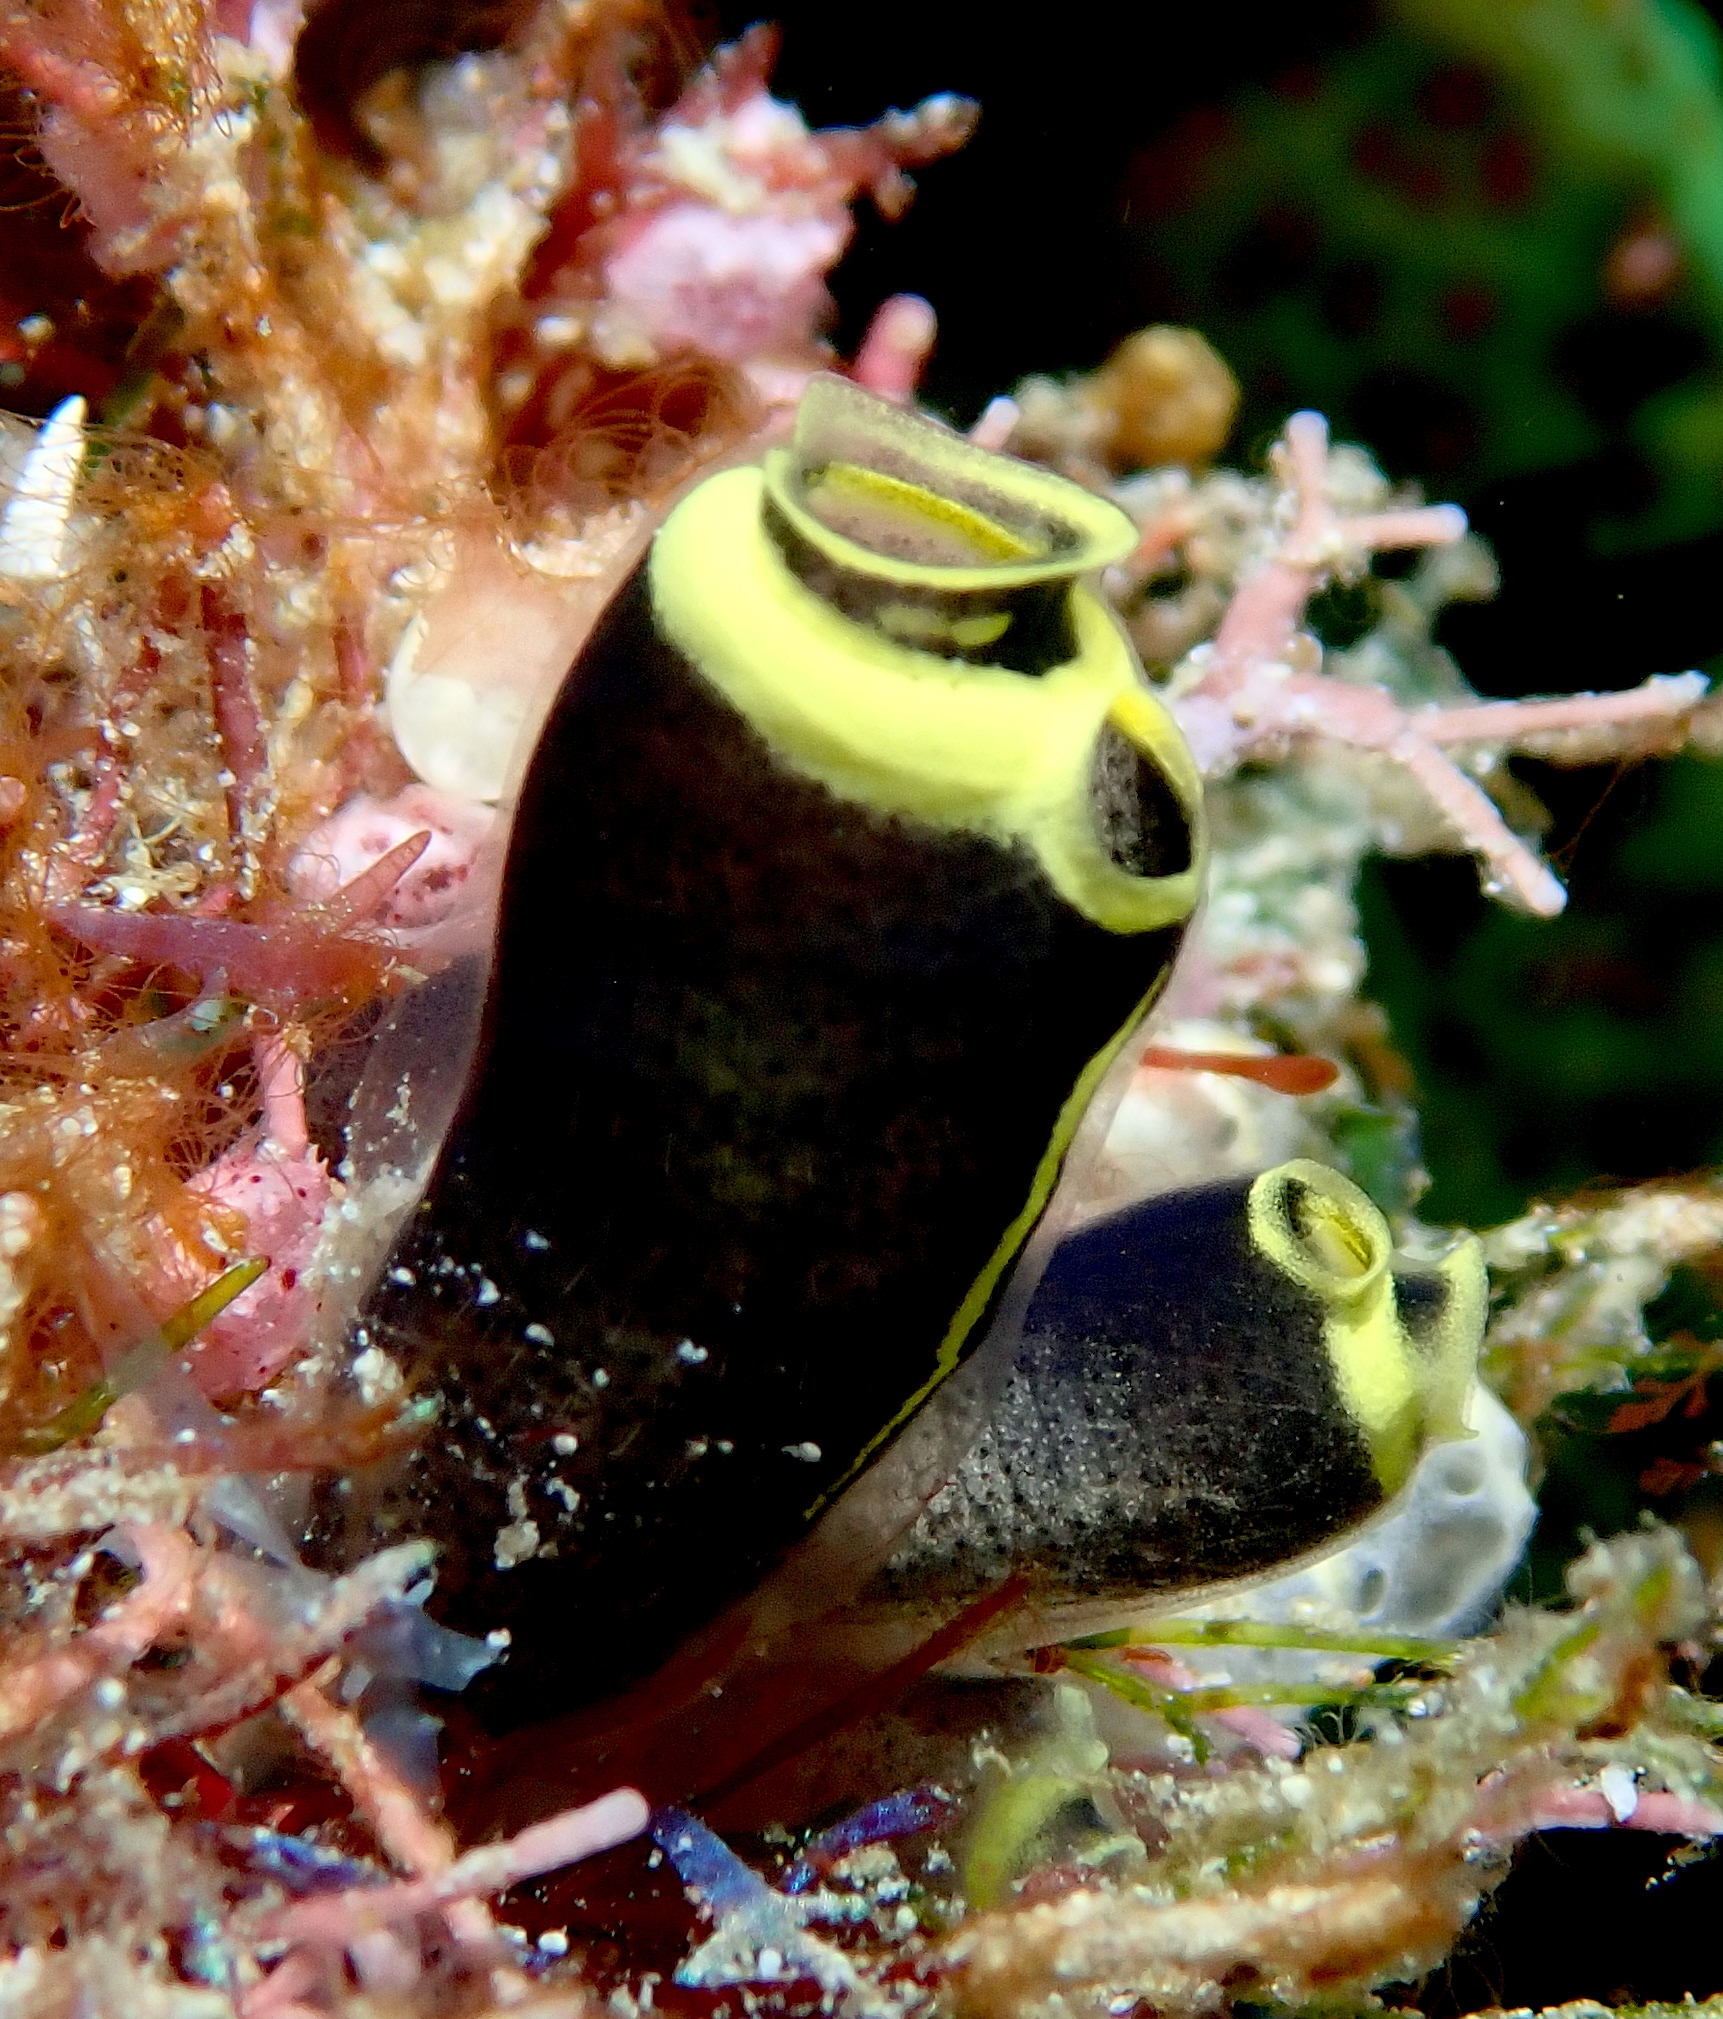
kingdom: Animalia
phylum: Chordata
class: Ascidiacea
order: Aplousobranchia
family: Clavelinidae
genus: Clavelina
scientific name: Clavelina robusta
